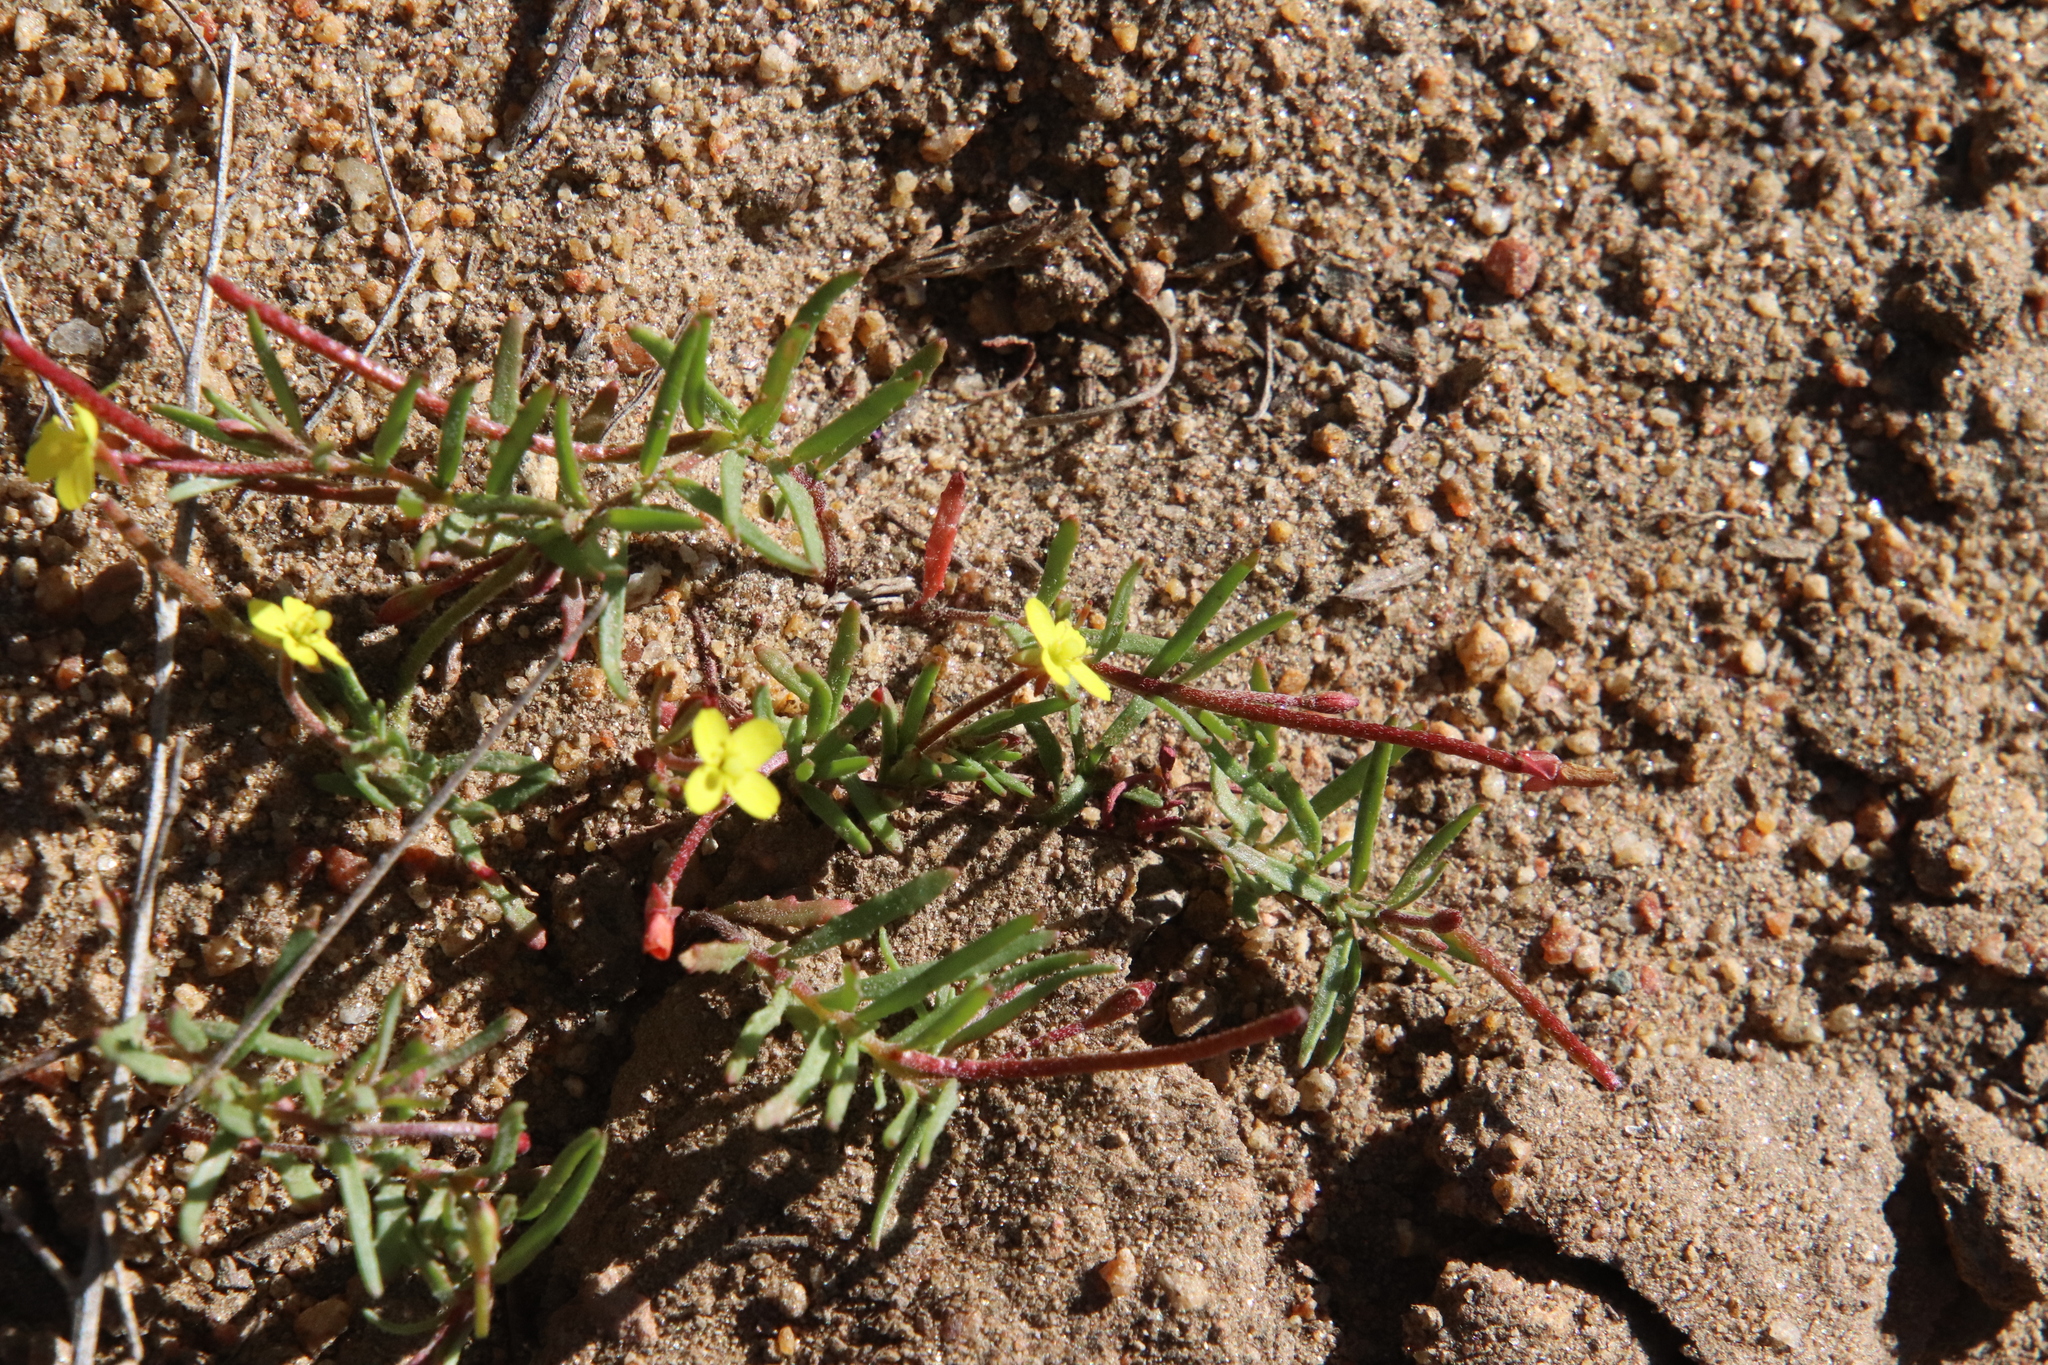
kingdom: Plantae
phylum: Tracheophyta
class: Magnoliopsida
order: Myrtales
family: Onagraceae
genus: Camissonia
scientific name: Camissonia strigulosa
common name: Contorted-primrose
